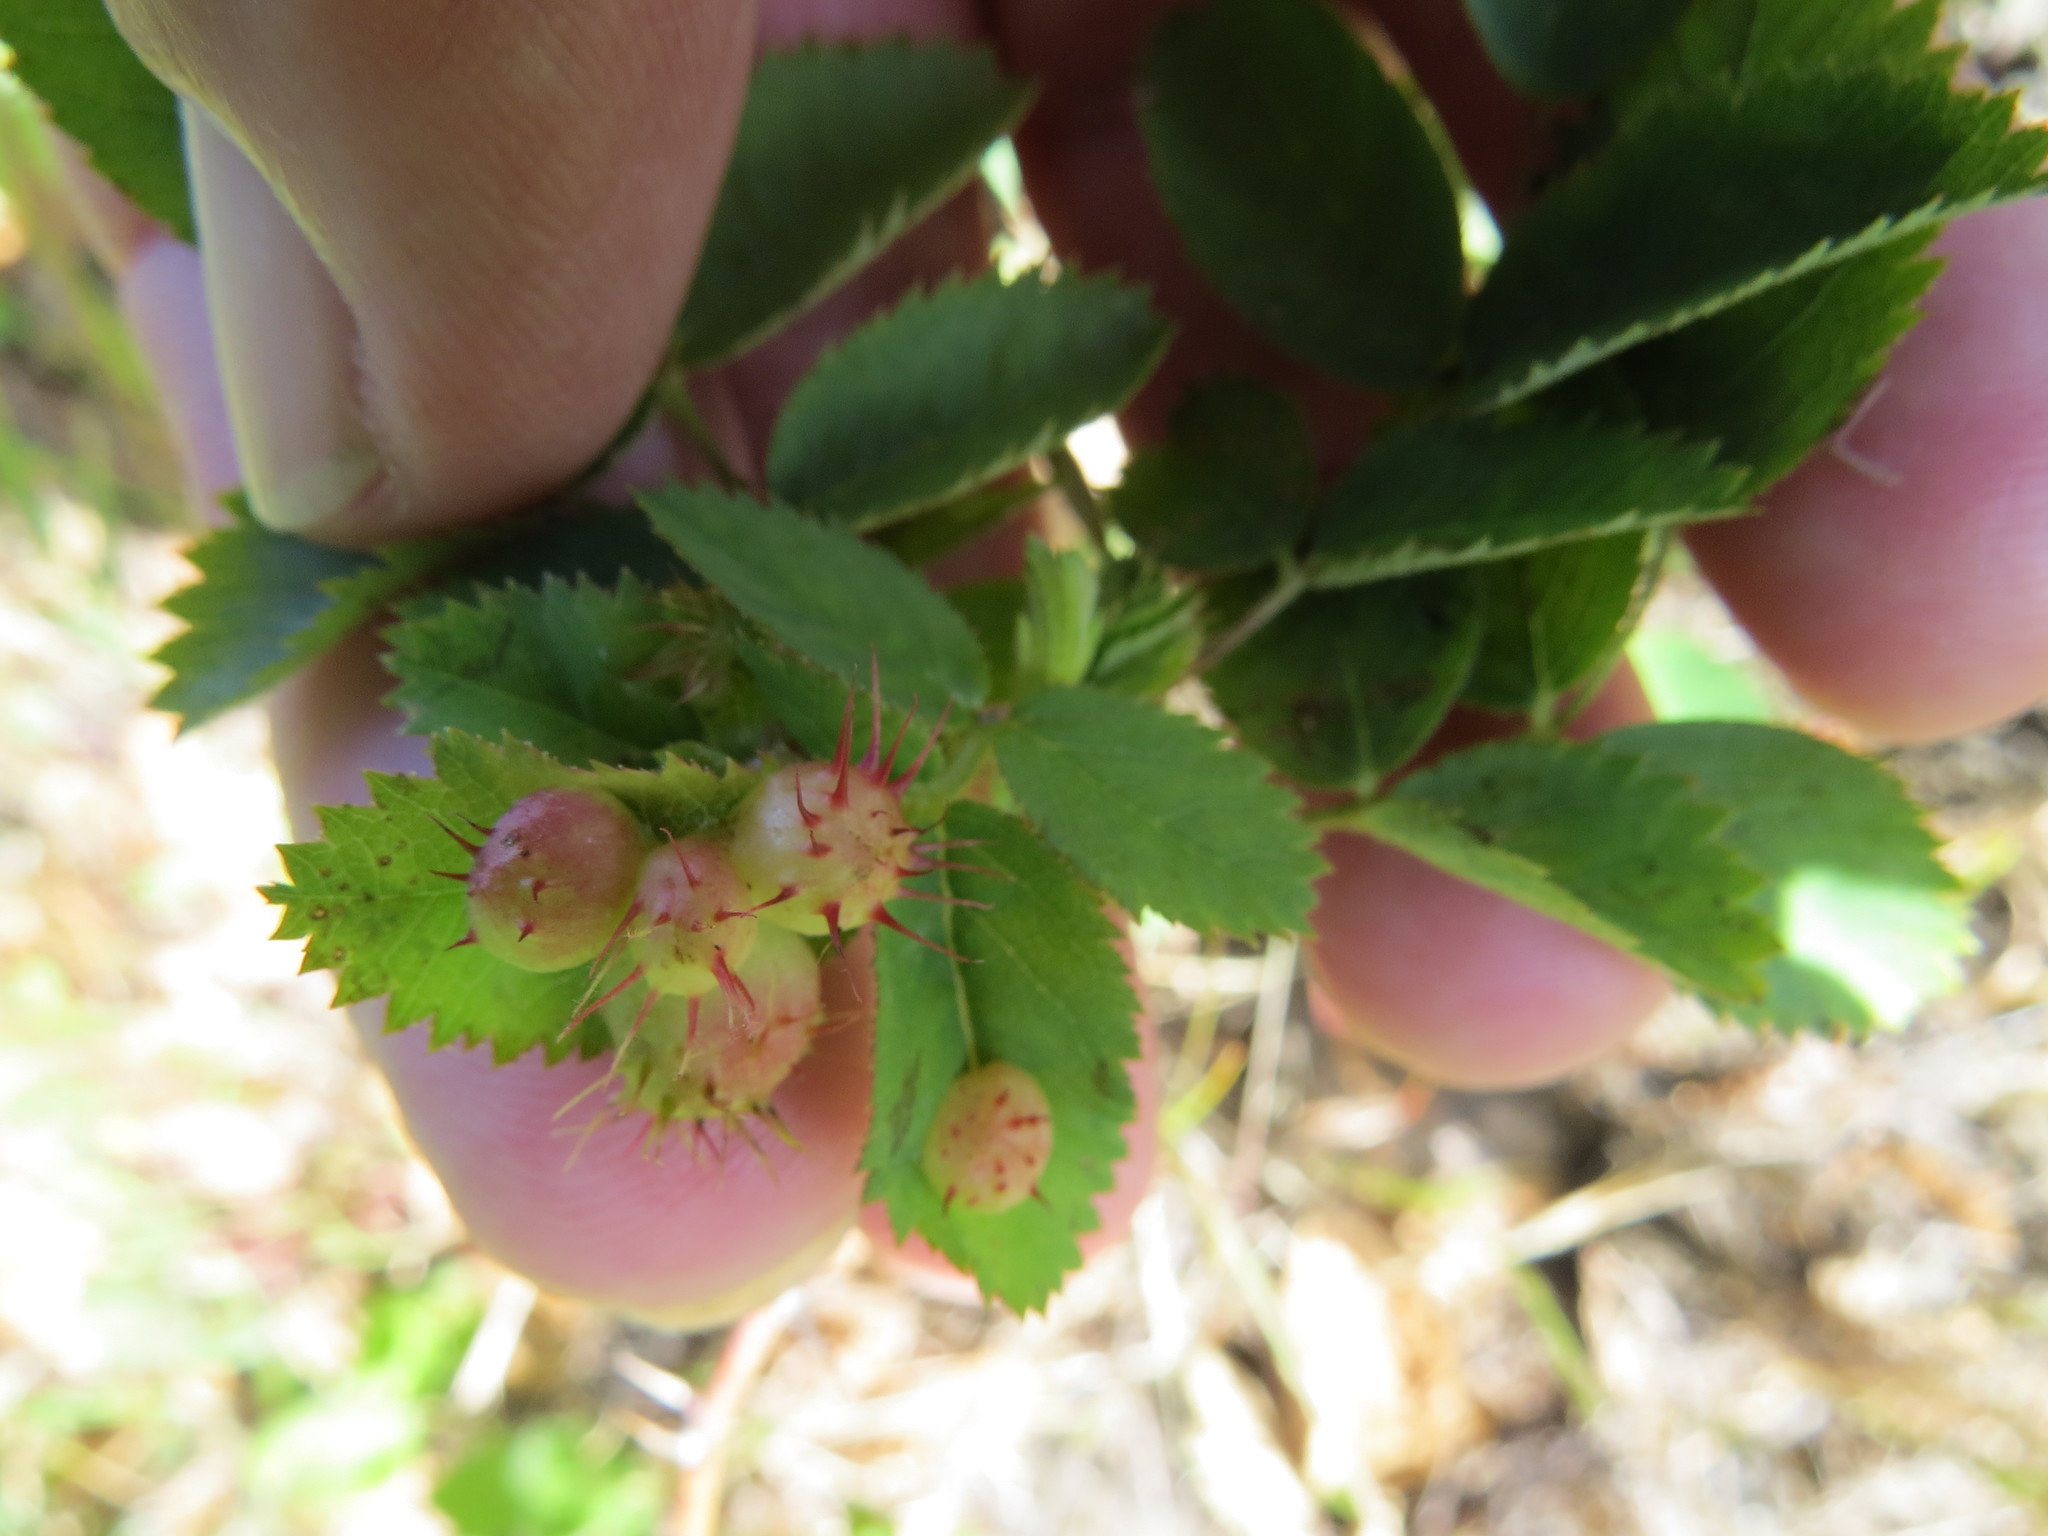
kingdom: Animalia
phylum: Arthropoda
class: Insecta
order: Hymenoptera
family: Cynipidae
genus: Diplolepis
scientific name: Diplolepis polita
